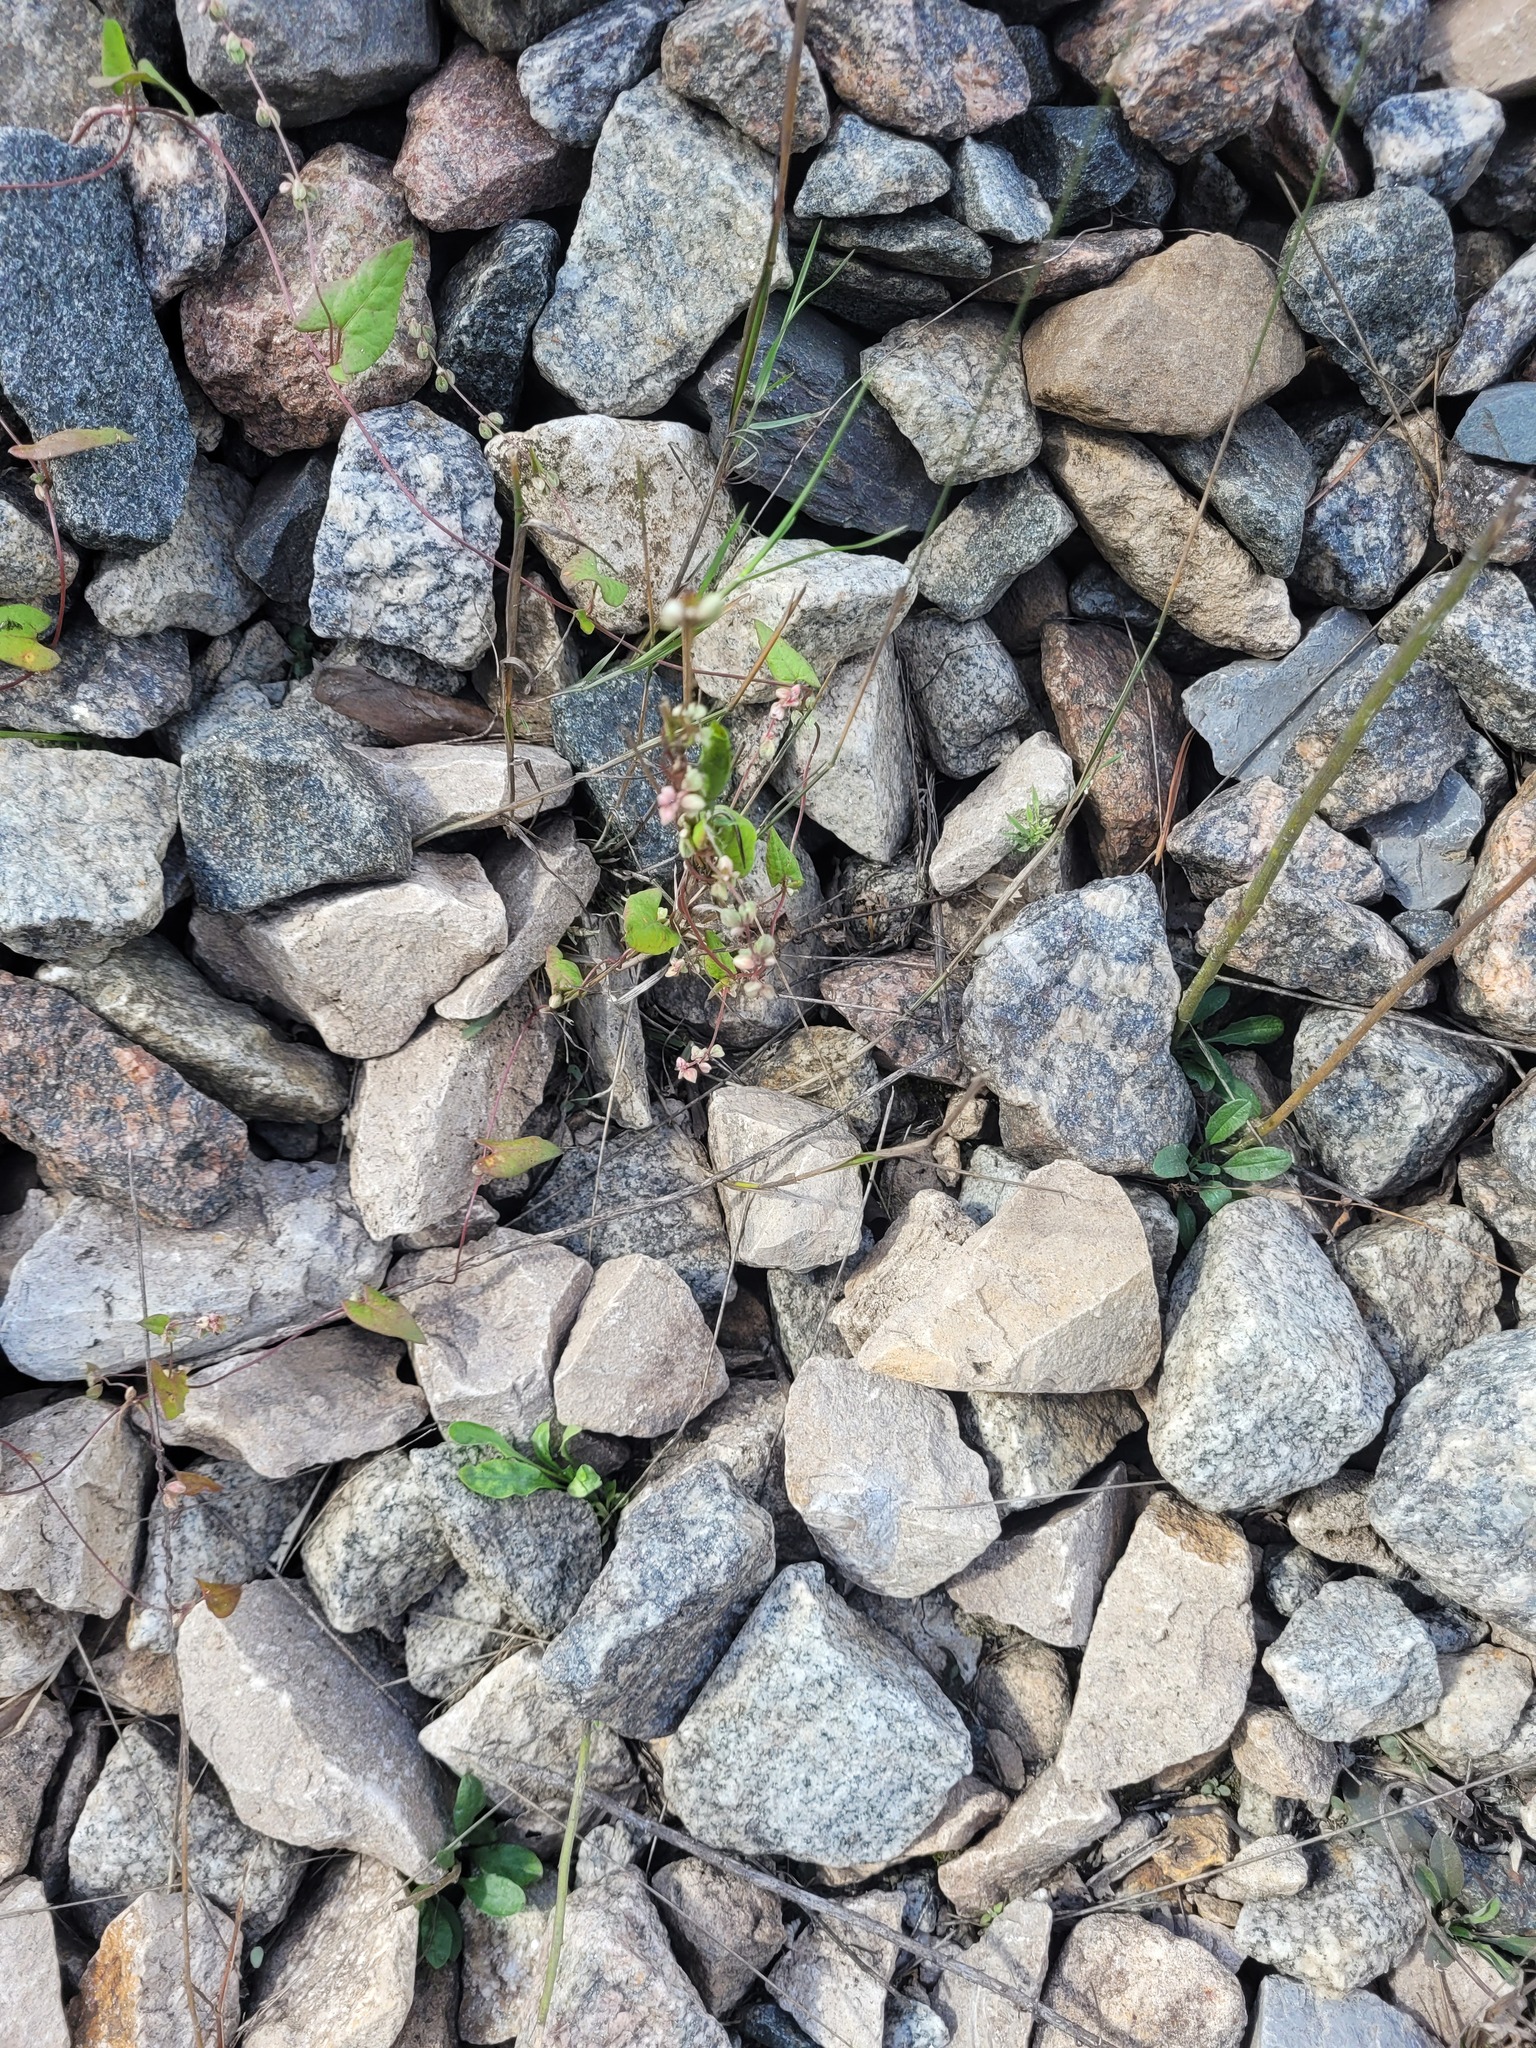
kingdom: Plantae
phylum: Tracheophyta
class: Magnoliopsida
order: Caryophyllales
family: Polygonaceae
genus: Fallopia
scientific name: Fallopia convolvulus
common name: Black bindweed
